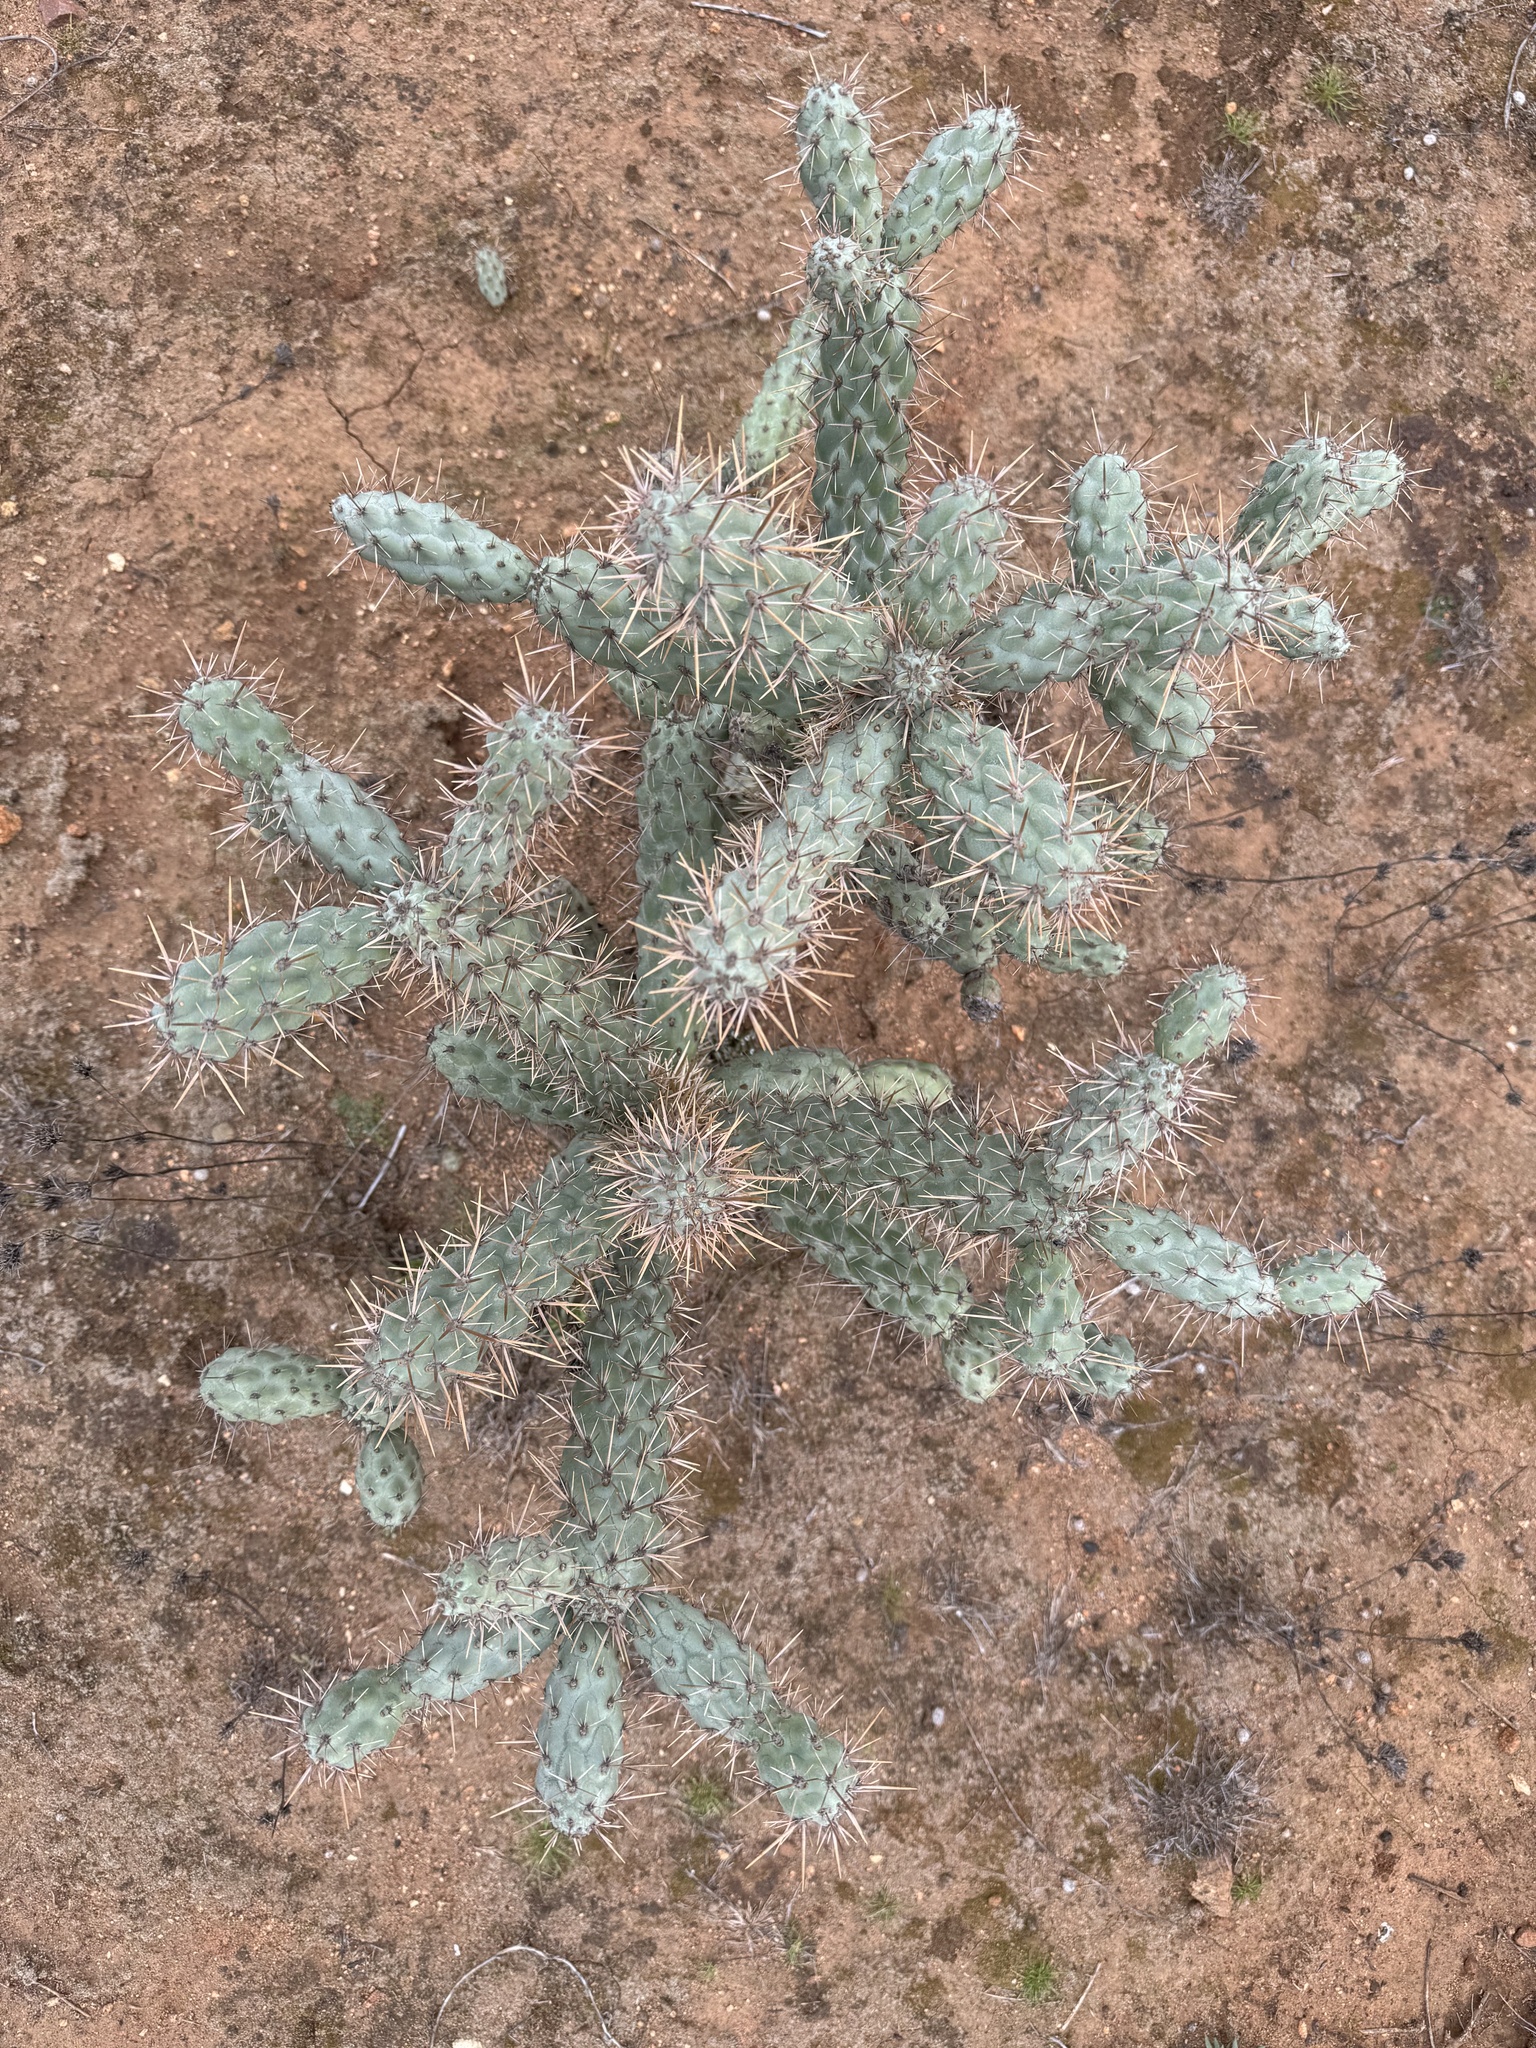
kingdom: Plantae
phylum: Tracheophyta
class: Magnoliopsida
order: Caryophyllales
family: Cactaceae
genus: Cylindropuntia
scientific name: Cylindropuntia prolifera
